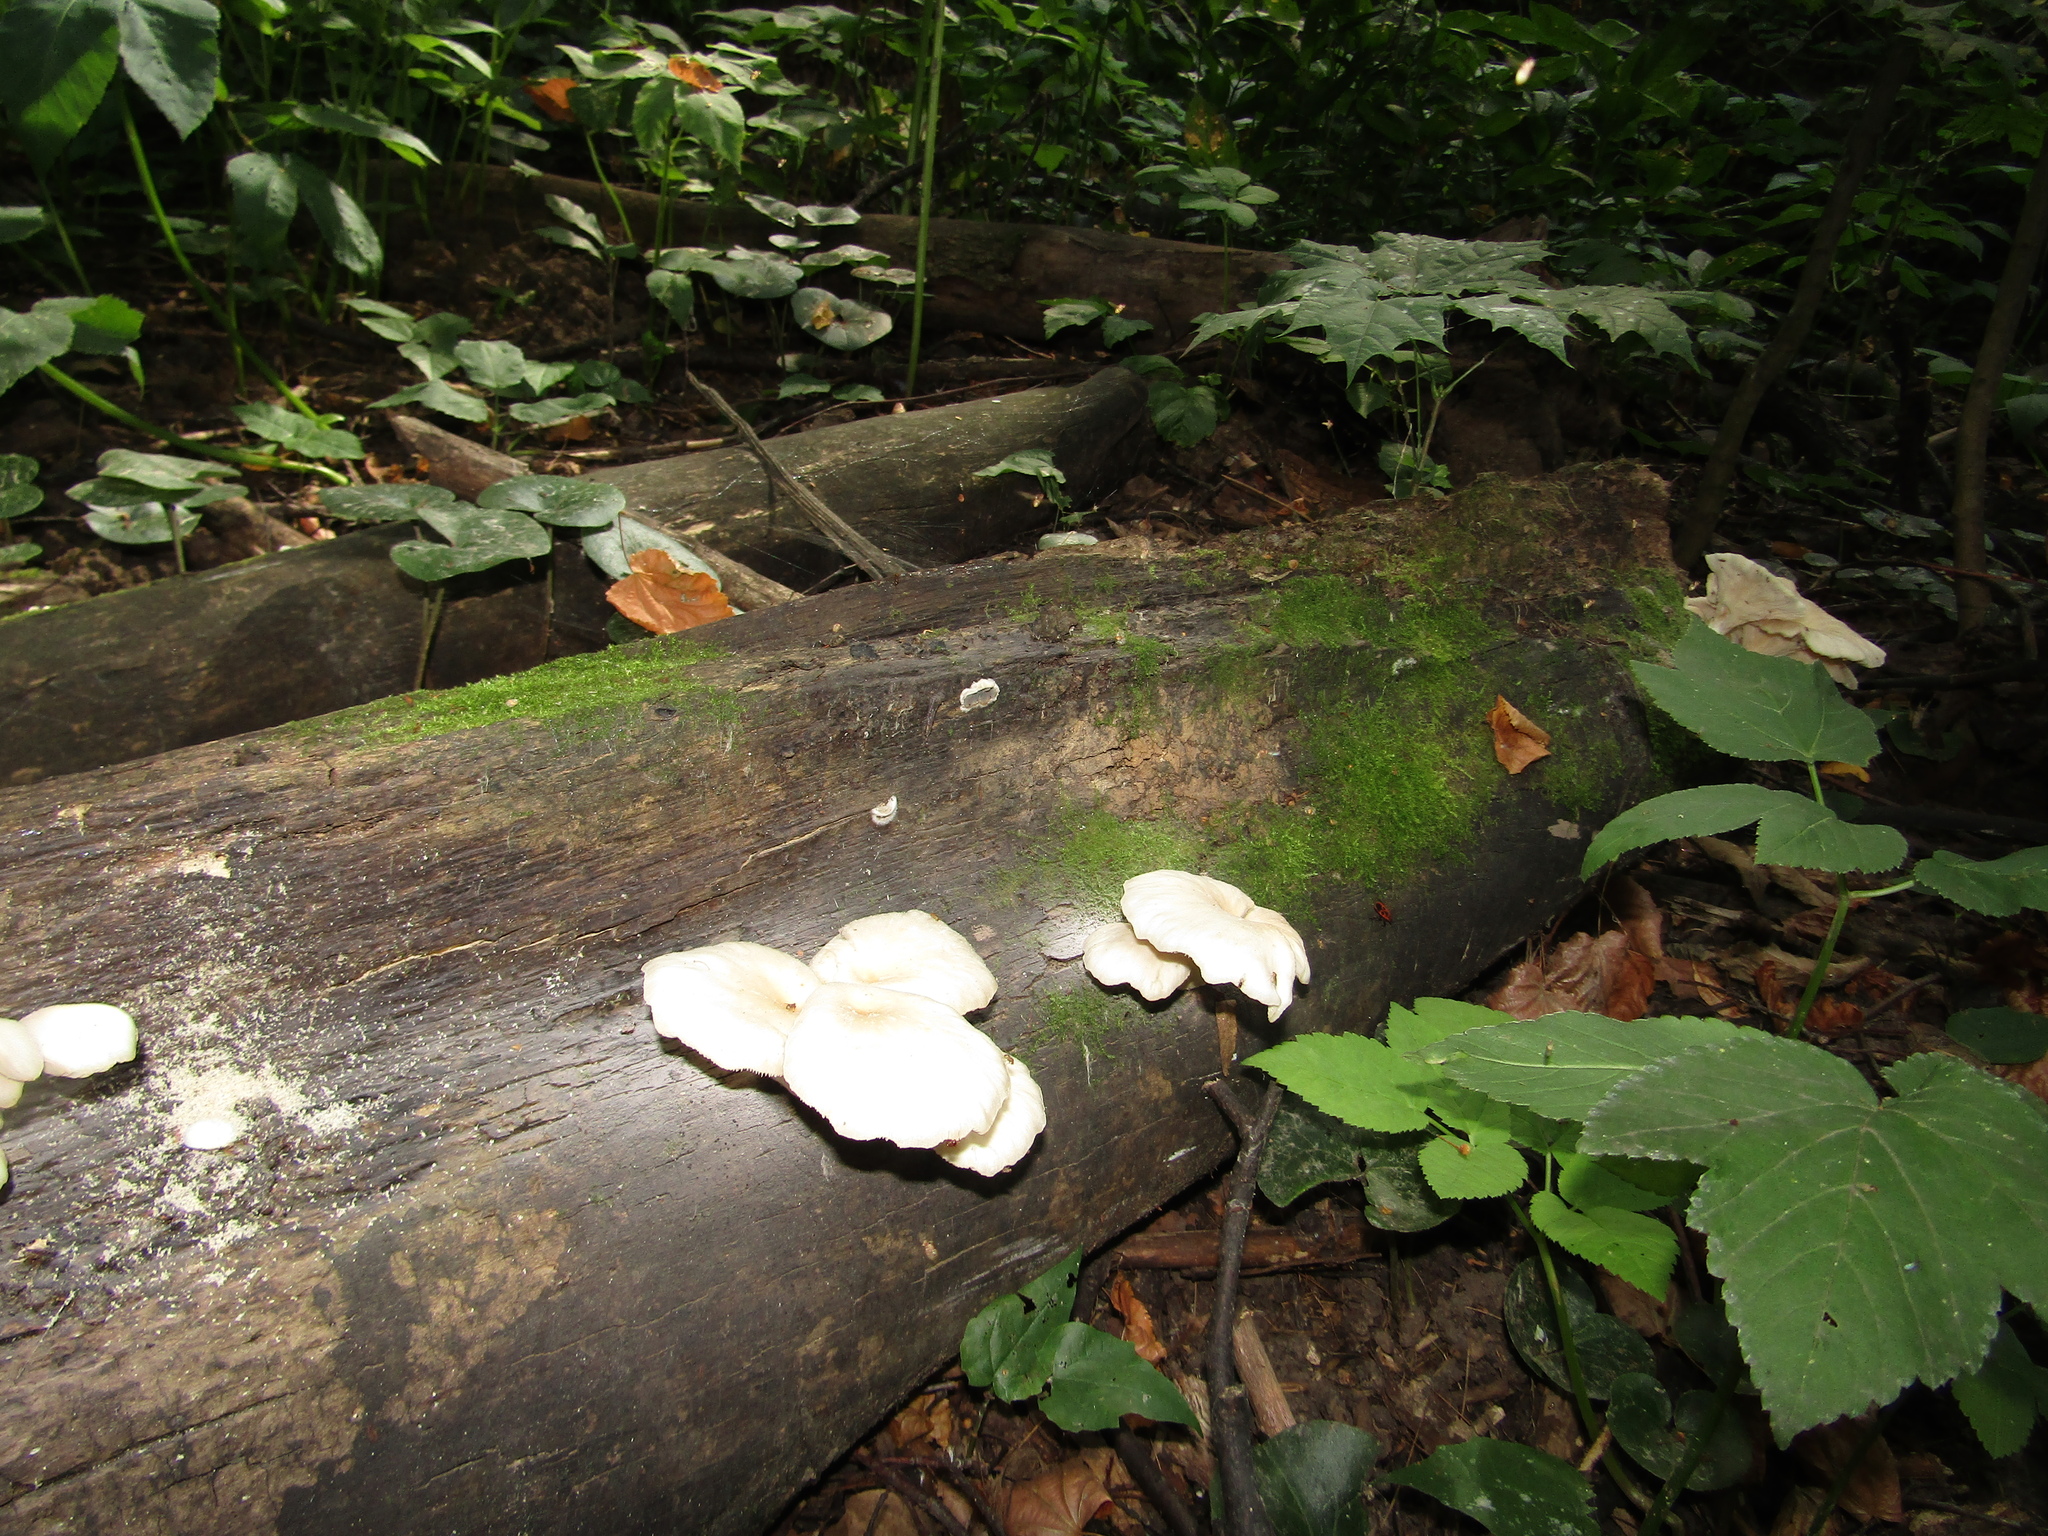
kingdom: Fungi
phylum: Basidiomycota
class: Agaricomycetes
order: Agaricales
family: Pleurotaceae
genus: Pleurotus
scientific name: Pleurotus cornucopiae
